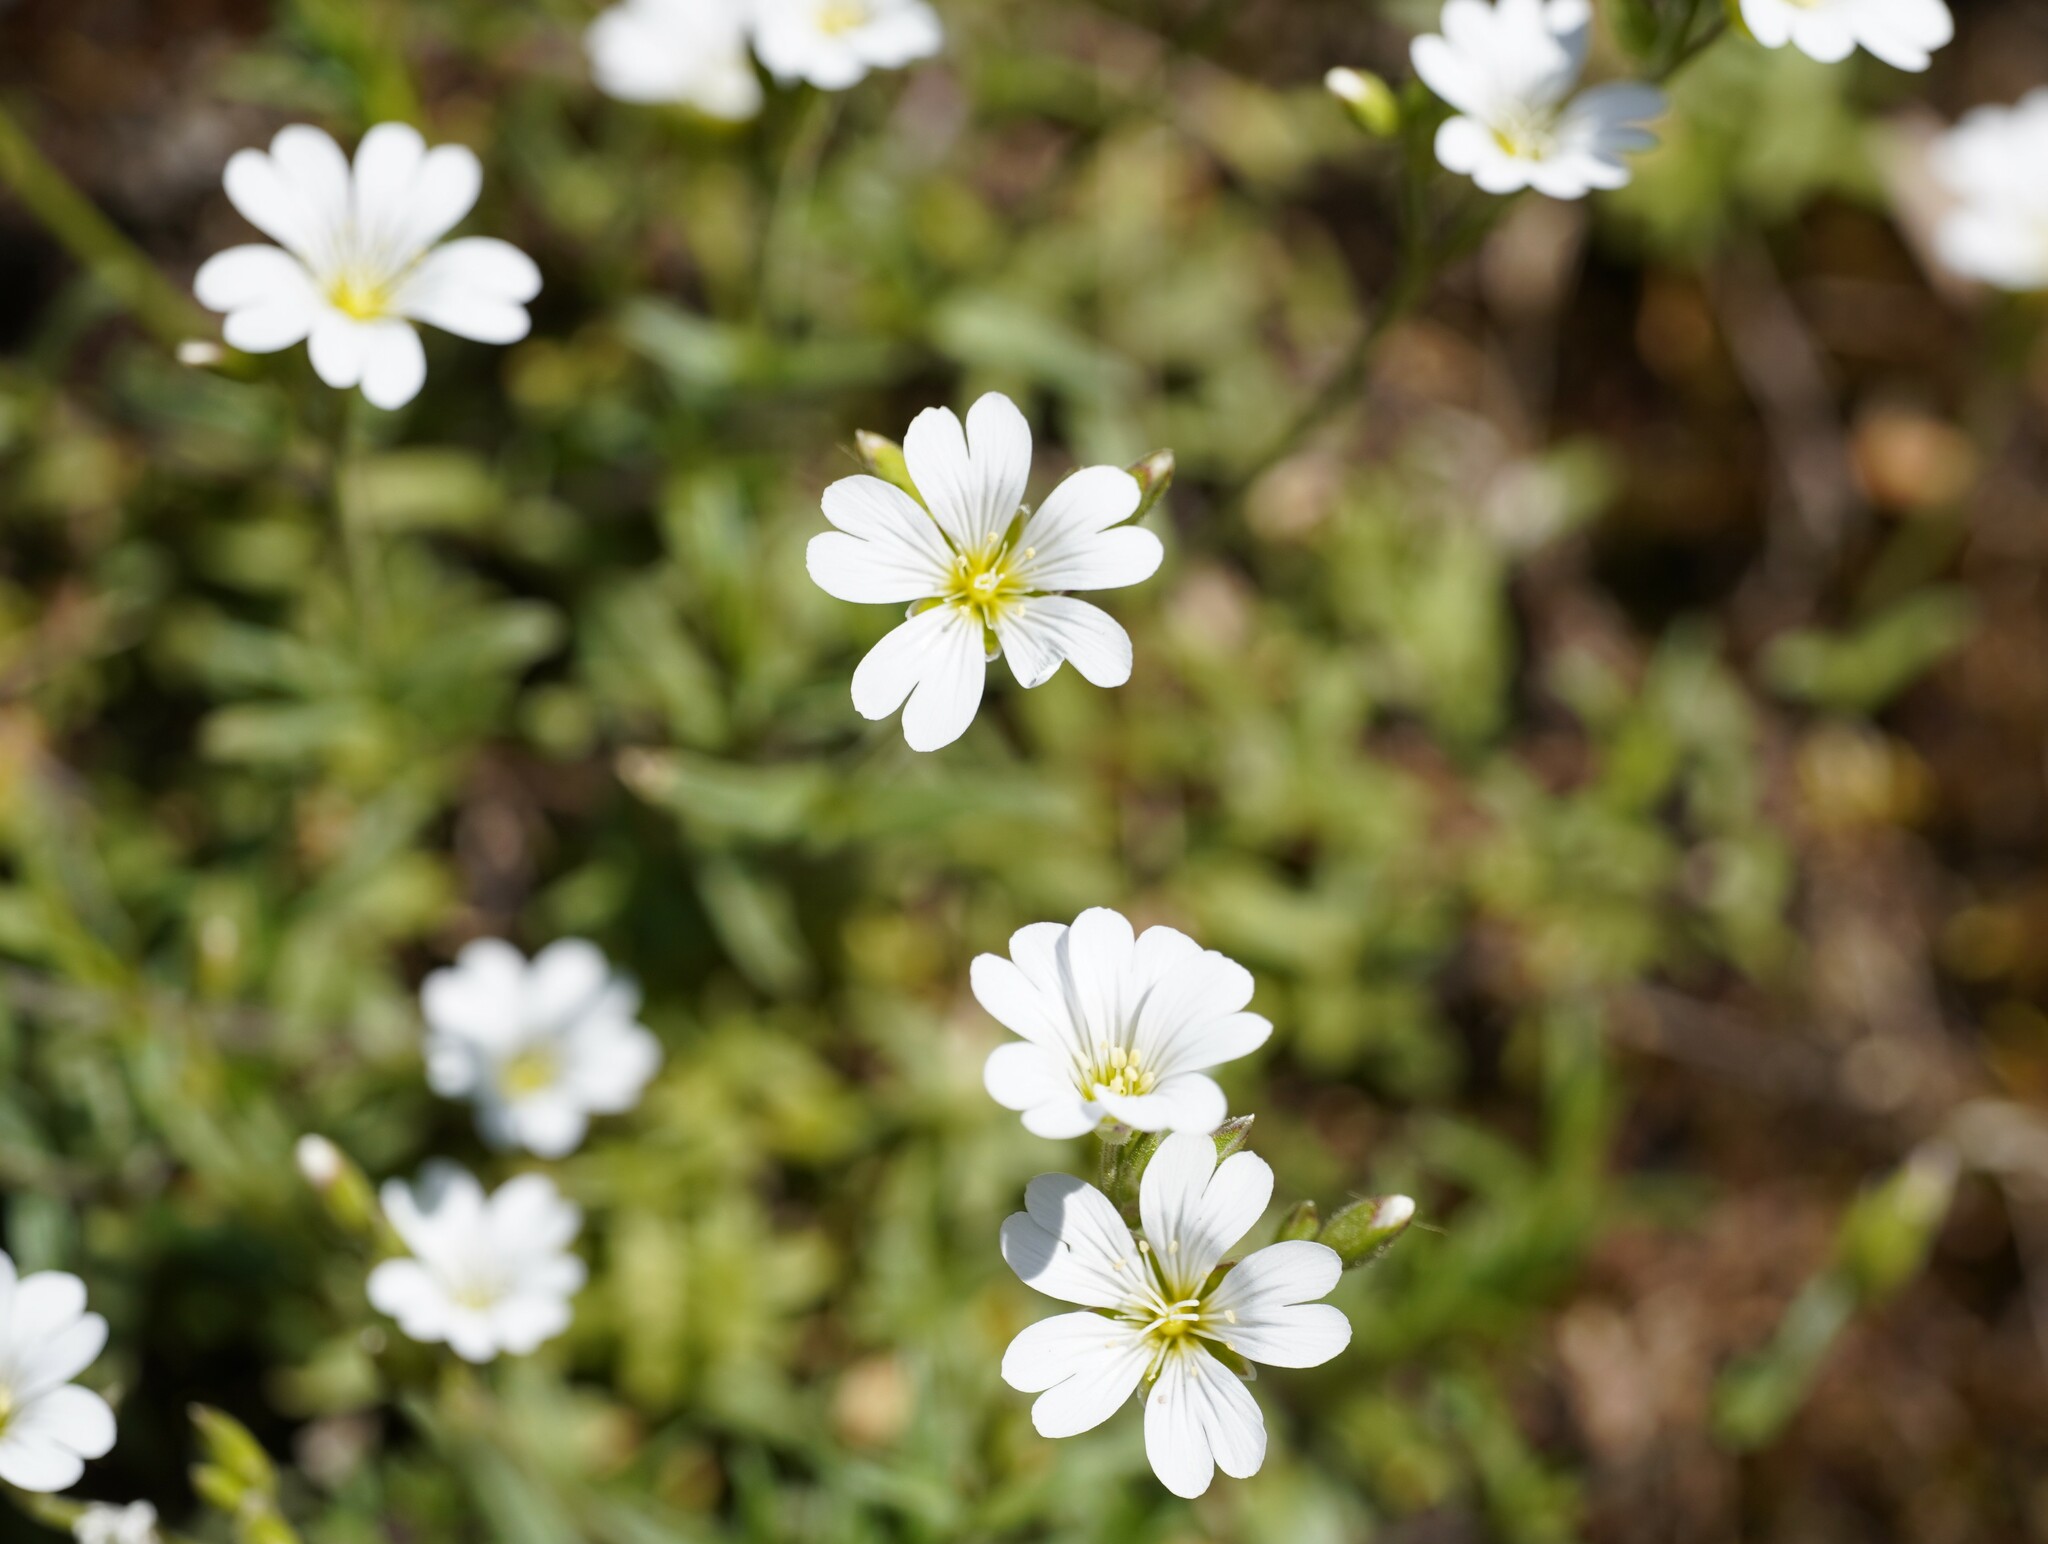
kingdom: Plantae
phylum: Tracheophyta
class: Magnoliopsida
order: Caryophyllales
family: Caryophyllaceae
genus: Cerastium
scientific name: Cerastium arvense
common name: Field mouse-ear
